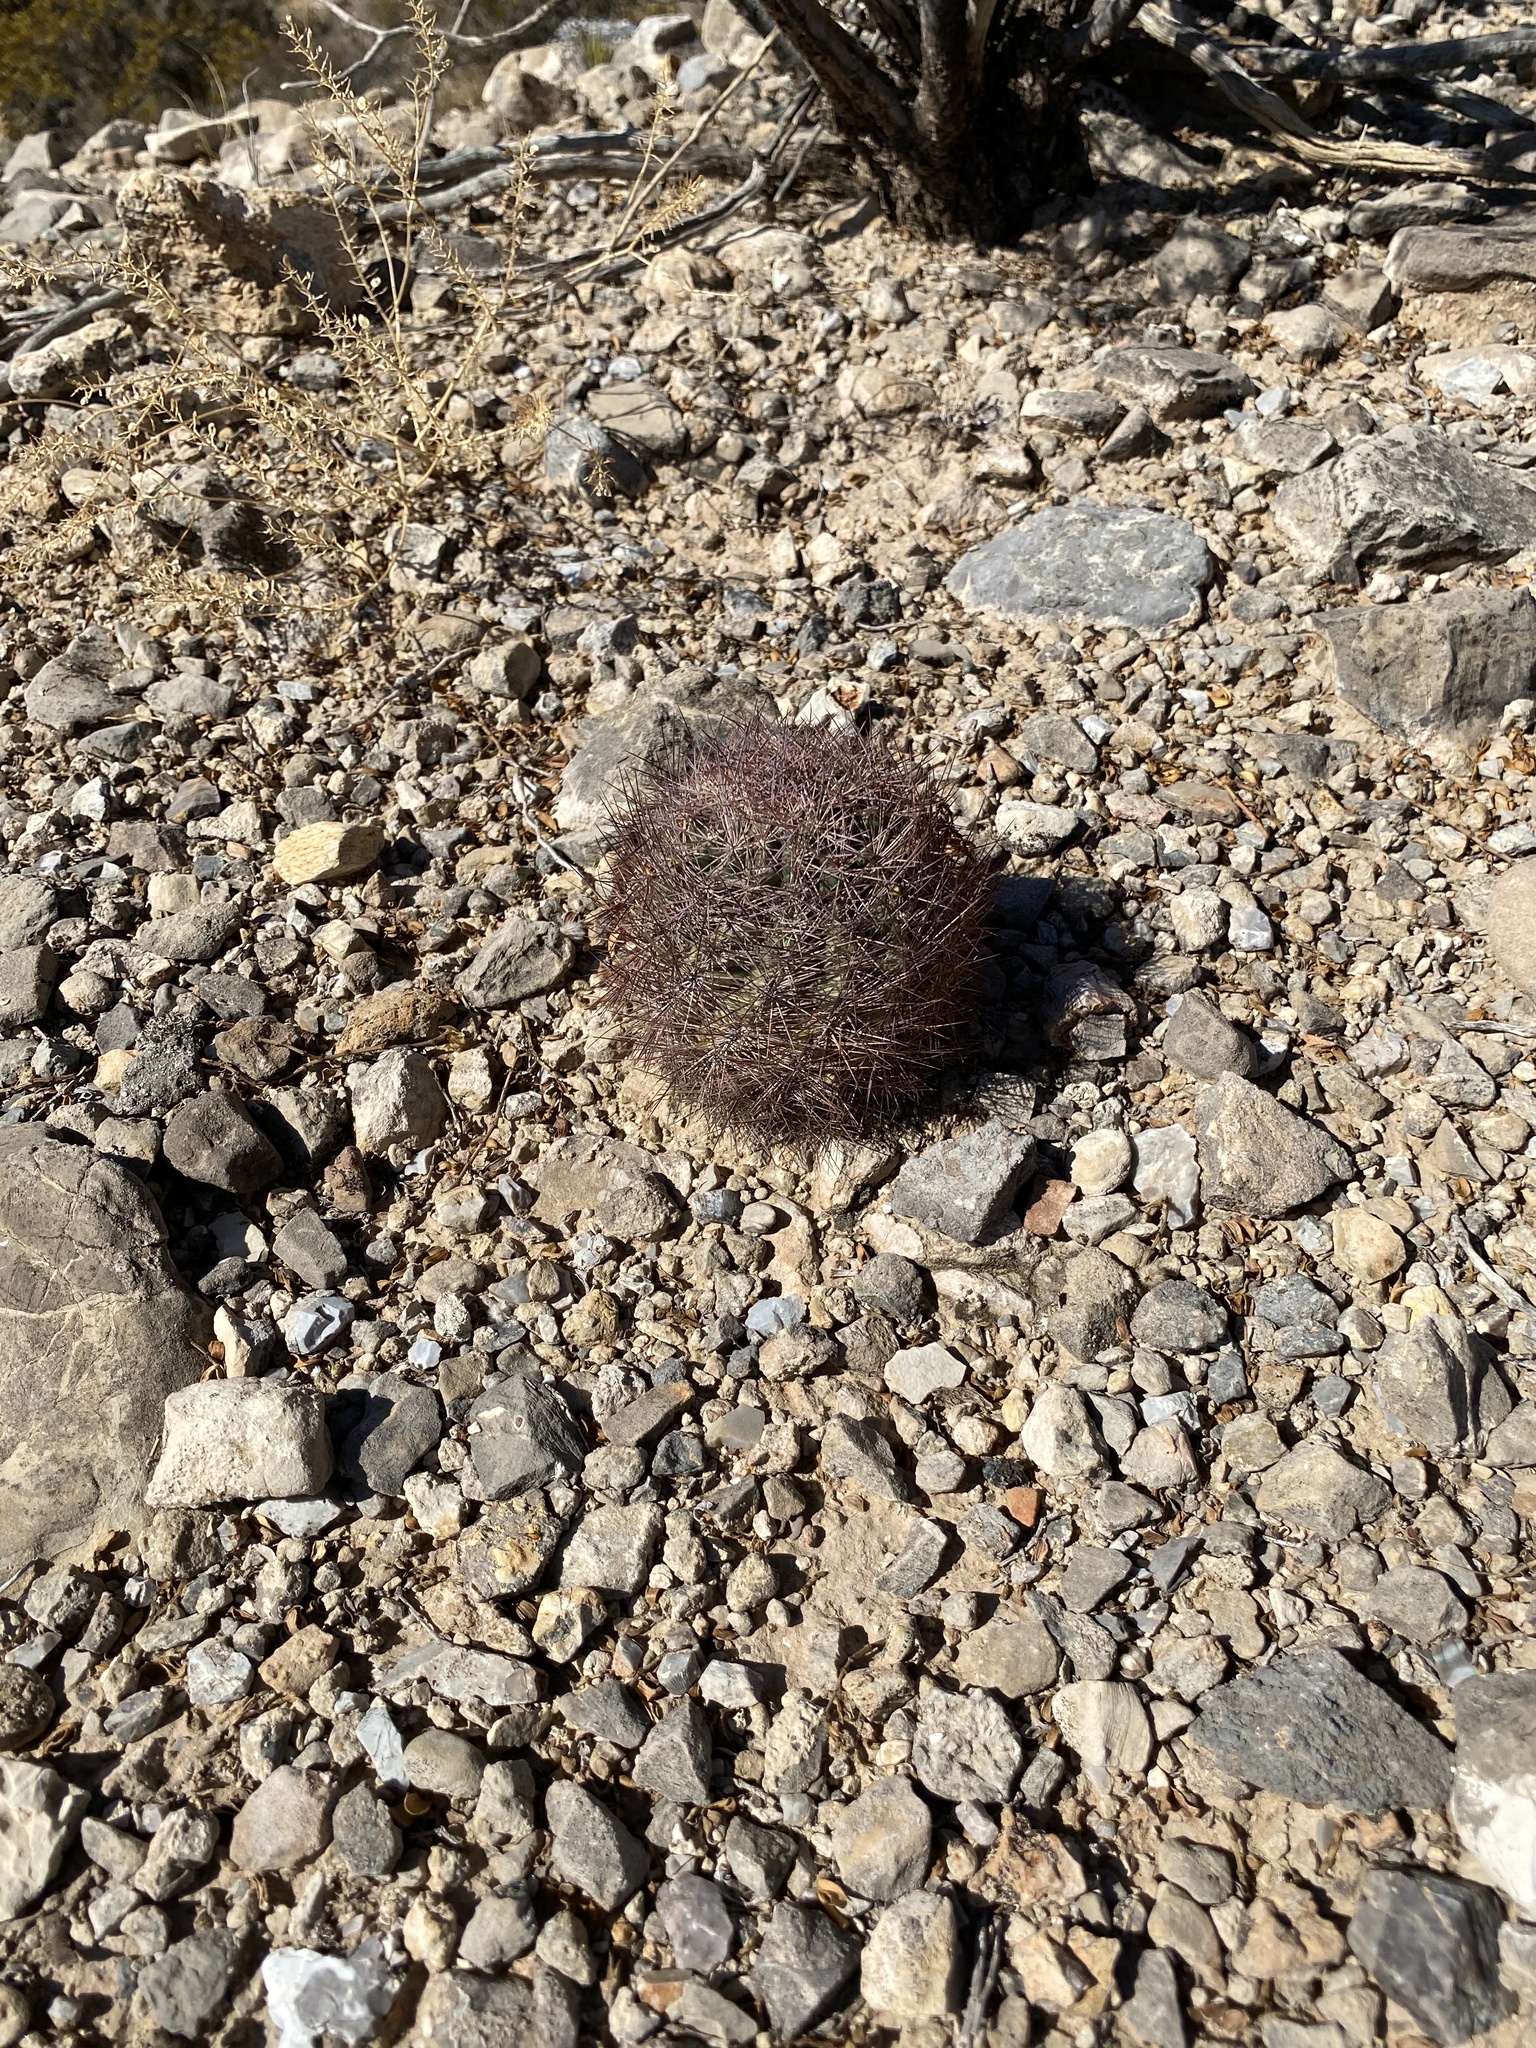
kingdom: Plantae
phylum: Tracheophyta
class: Magnoliopsida
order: Caryophyllales
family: Cactaceae
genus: Sclerocactus
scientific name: Sclerocactus intertextus
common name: White fish-hook cactus
